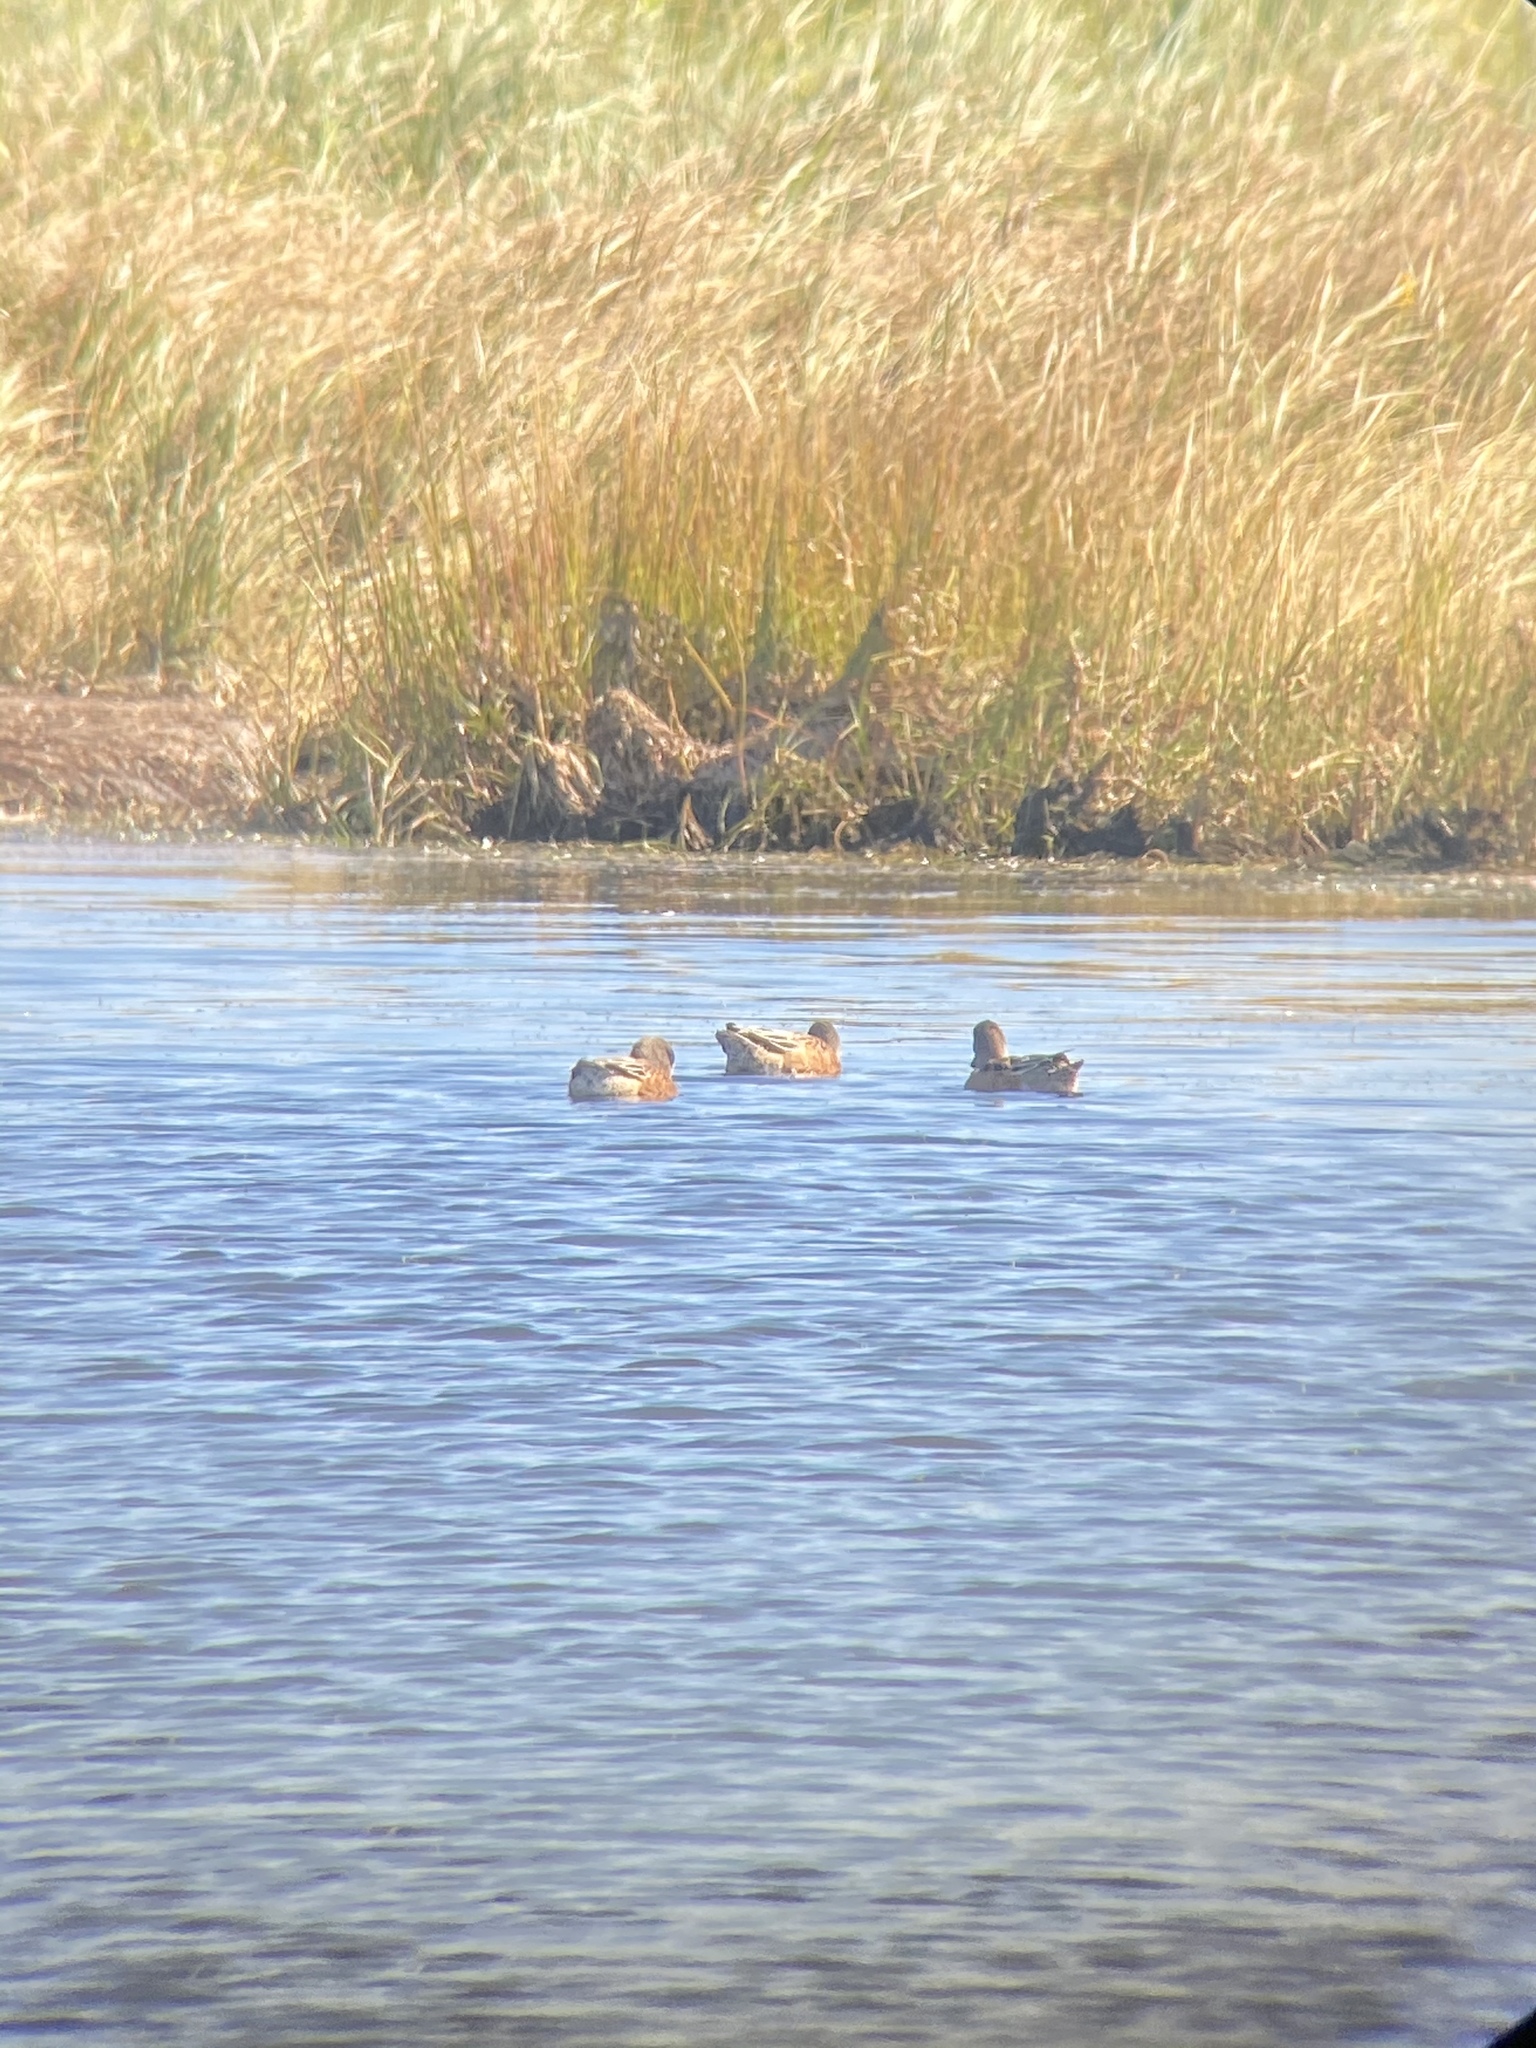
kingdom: Animalia
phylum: Chordata
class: Aves
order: Anseriformes
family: Anatidae
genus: Mareca
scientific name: Mareca americana
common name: American wigeon
